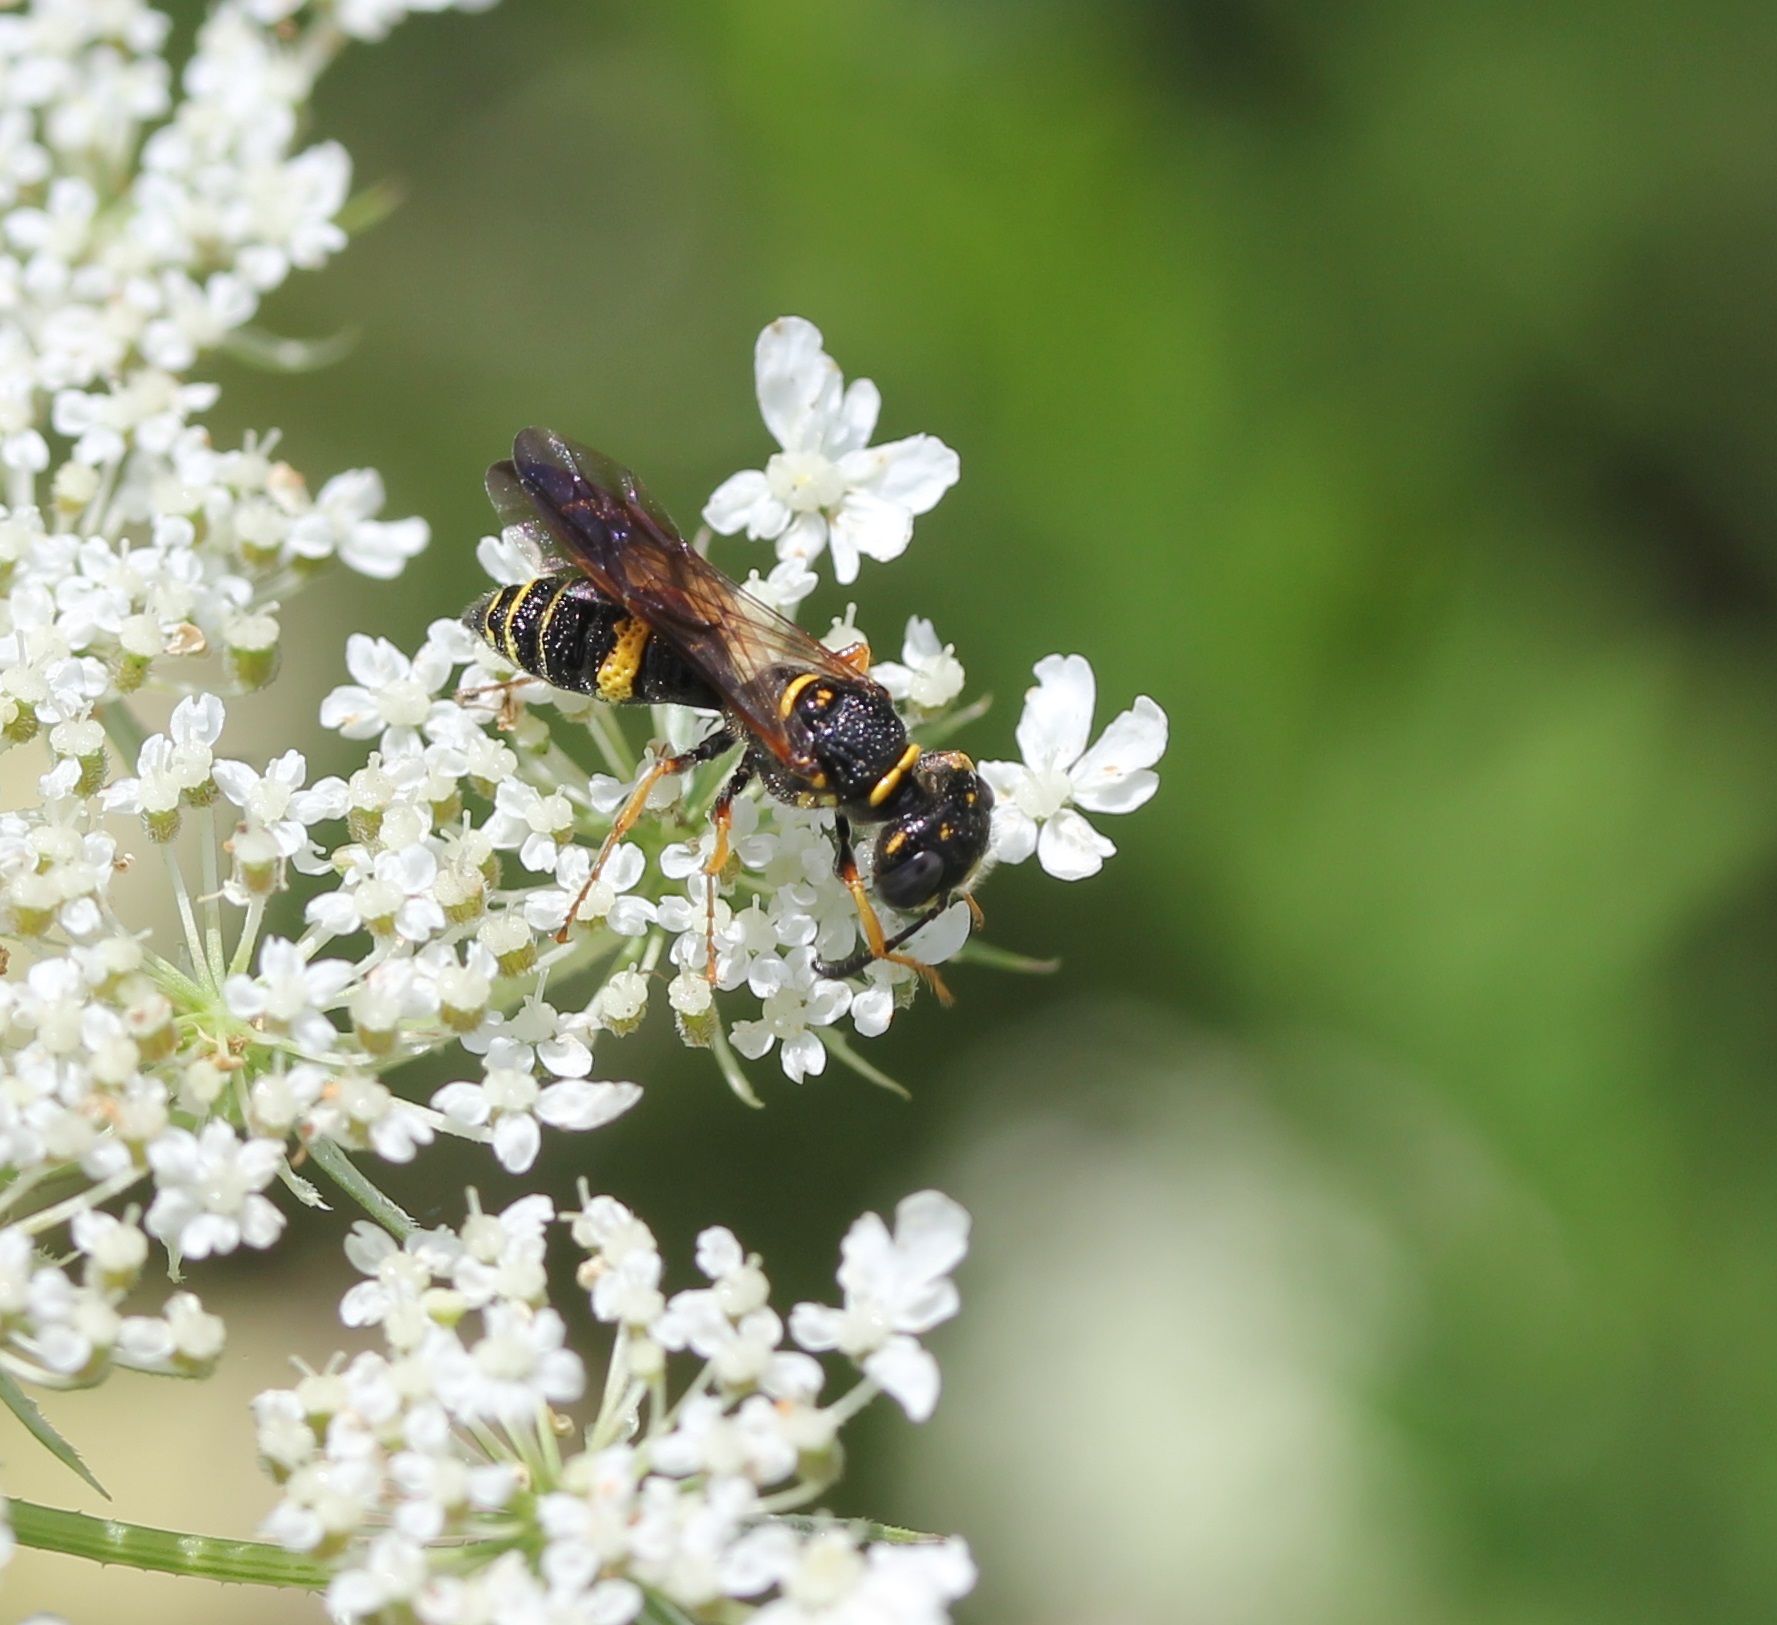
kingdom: Animalia
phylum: Arthropoda
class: Insecta
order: Hymenoptera
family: Crabronidae
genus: Philanthus
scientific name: Philanthus gibbosus
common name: Humped beewolf
